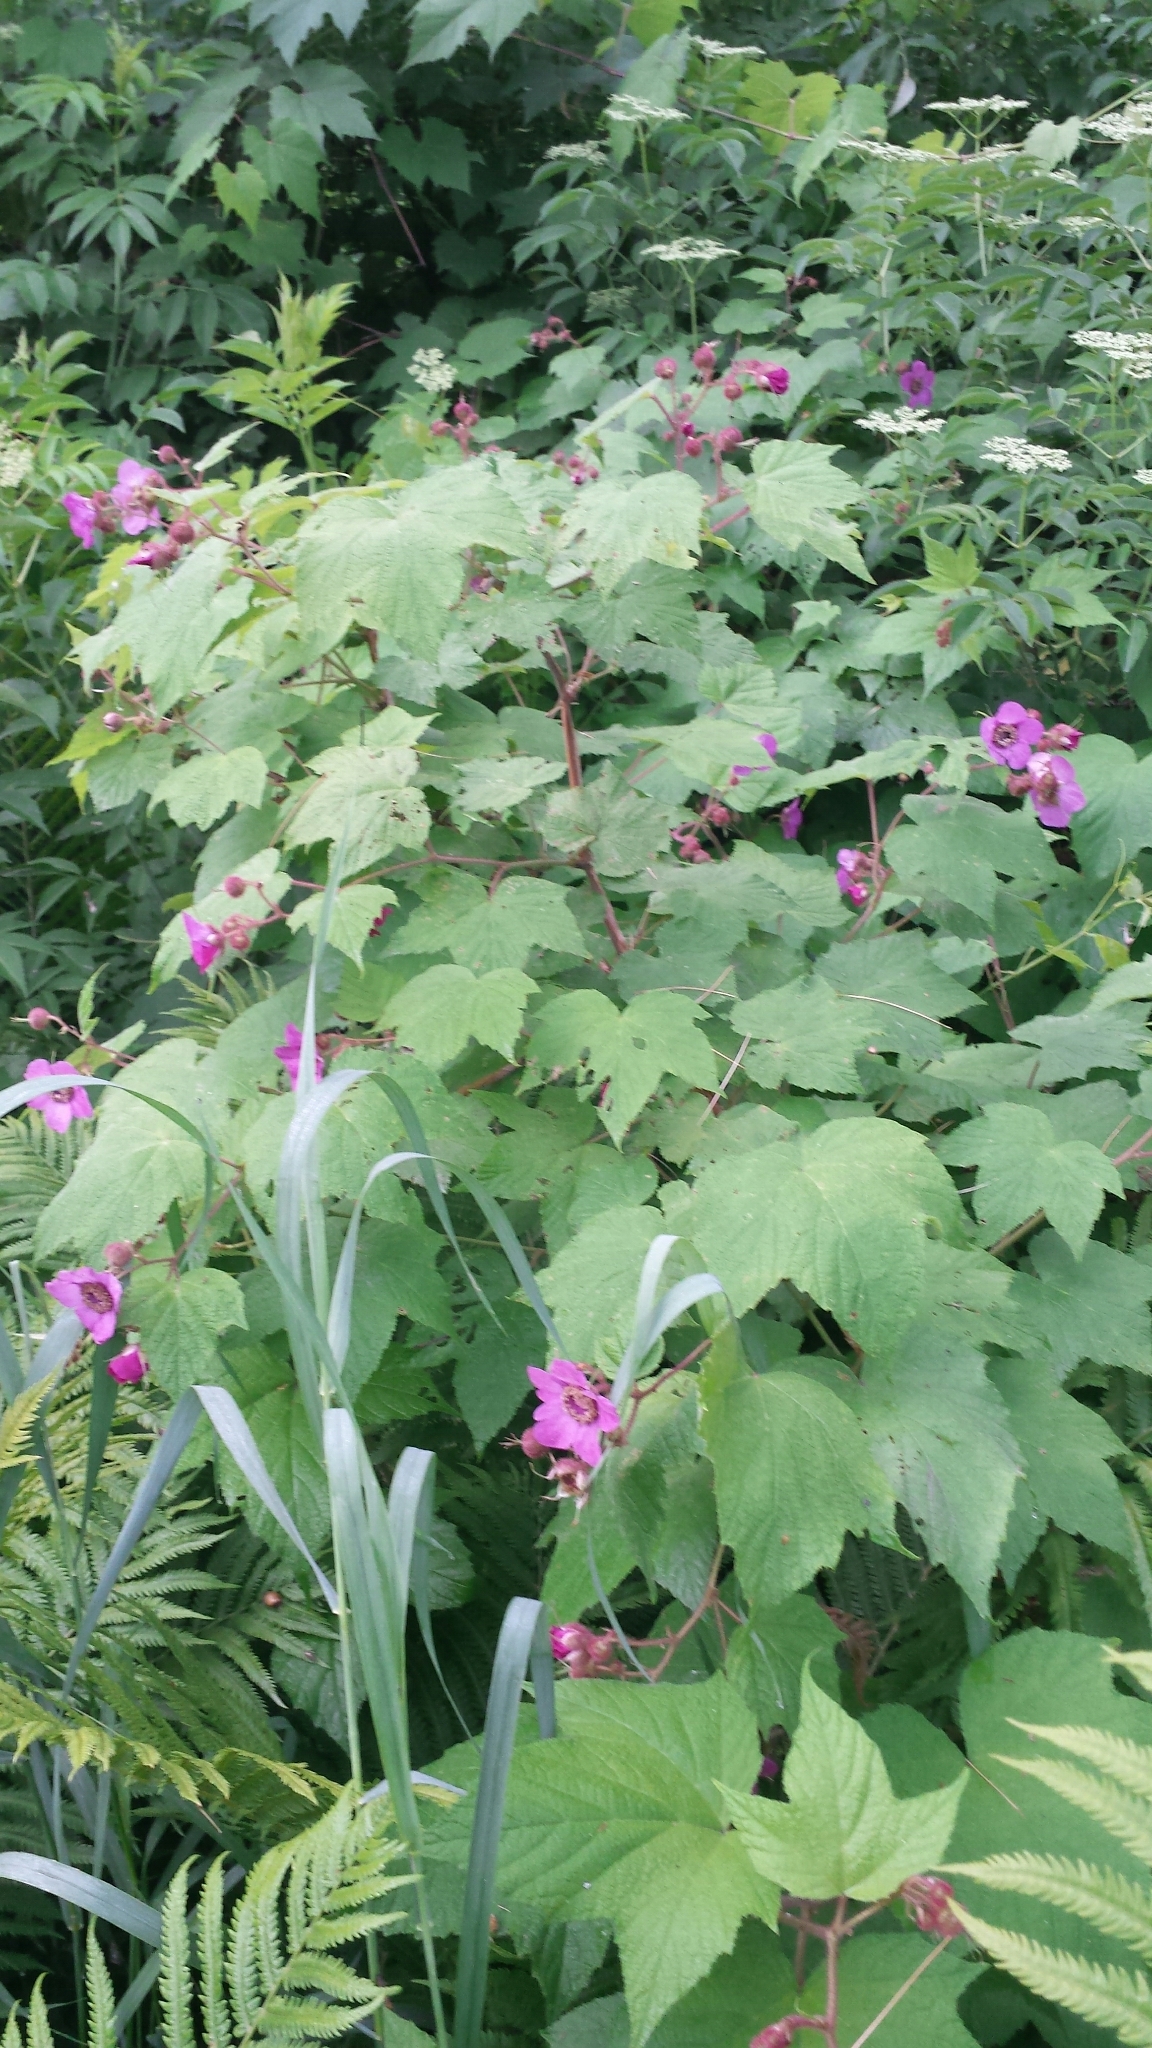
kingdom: Plantae
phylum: Tracheophyta
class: Magnoliopsida
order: Rosales
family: Rosaceae
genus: Rubus
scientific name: Rubus odoratus
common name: Purple-flowered raspberry
